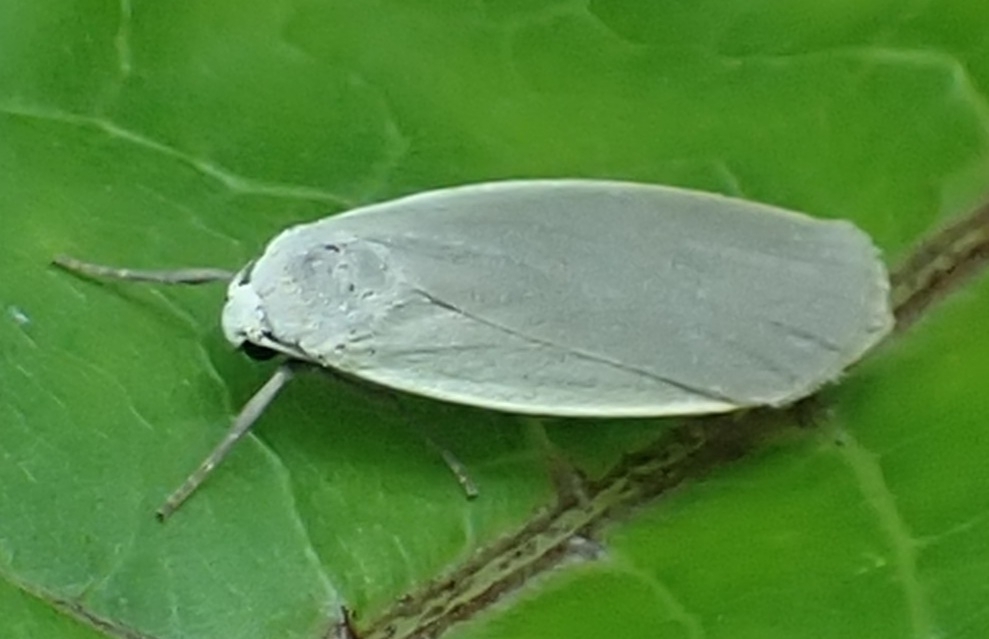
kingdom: Animalia
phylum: Arthropoda
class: Insecta
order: Lepidoptera
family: Erebidae
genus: Collita
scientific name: Collita griseola
